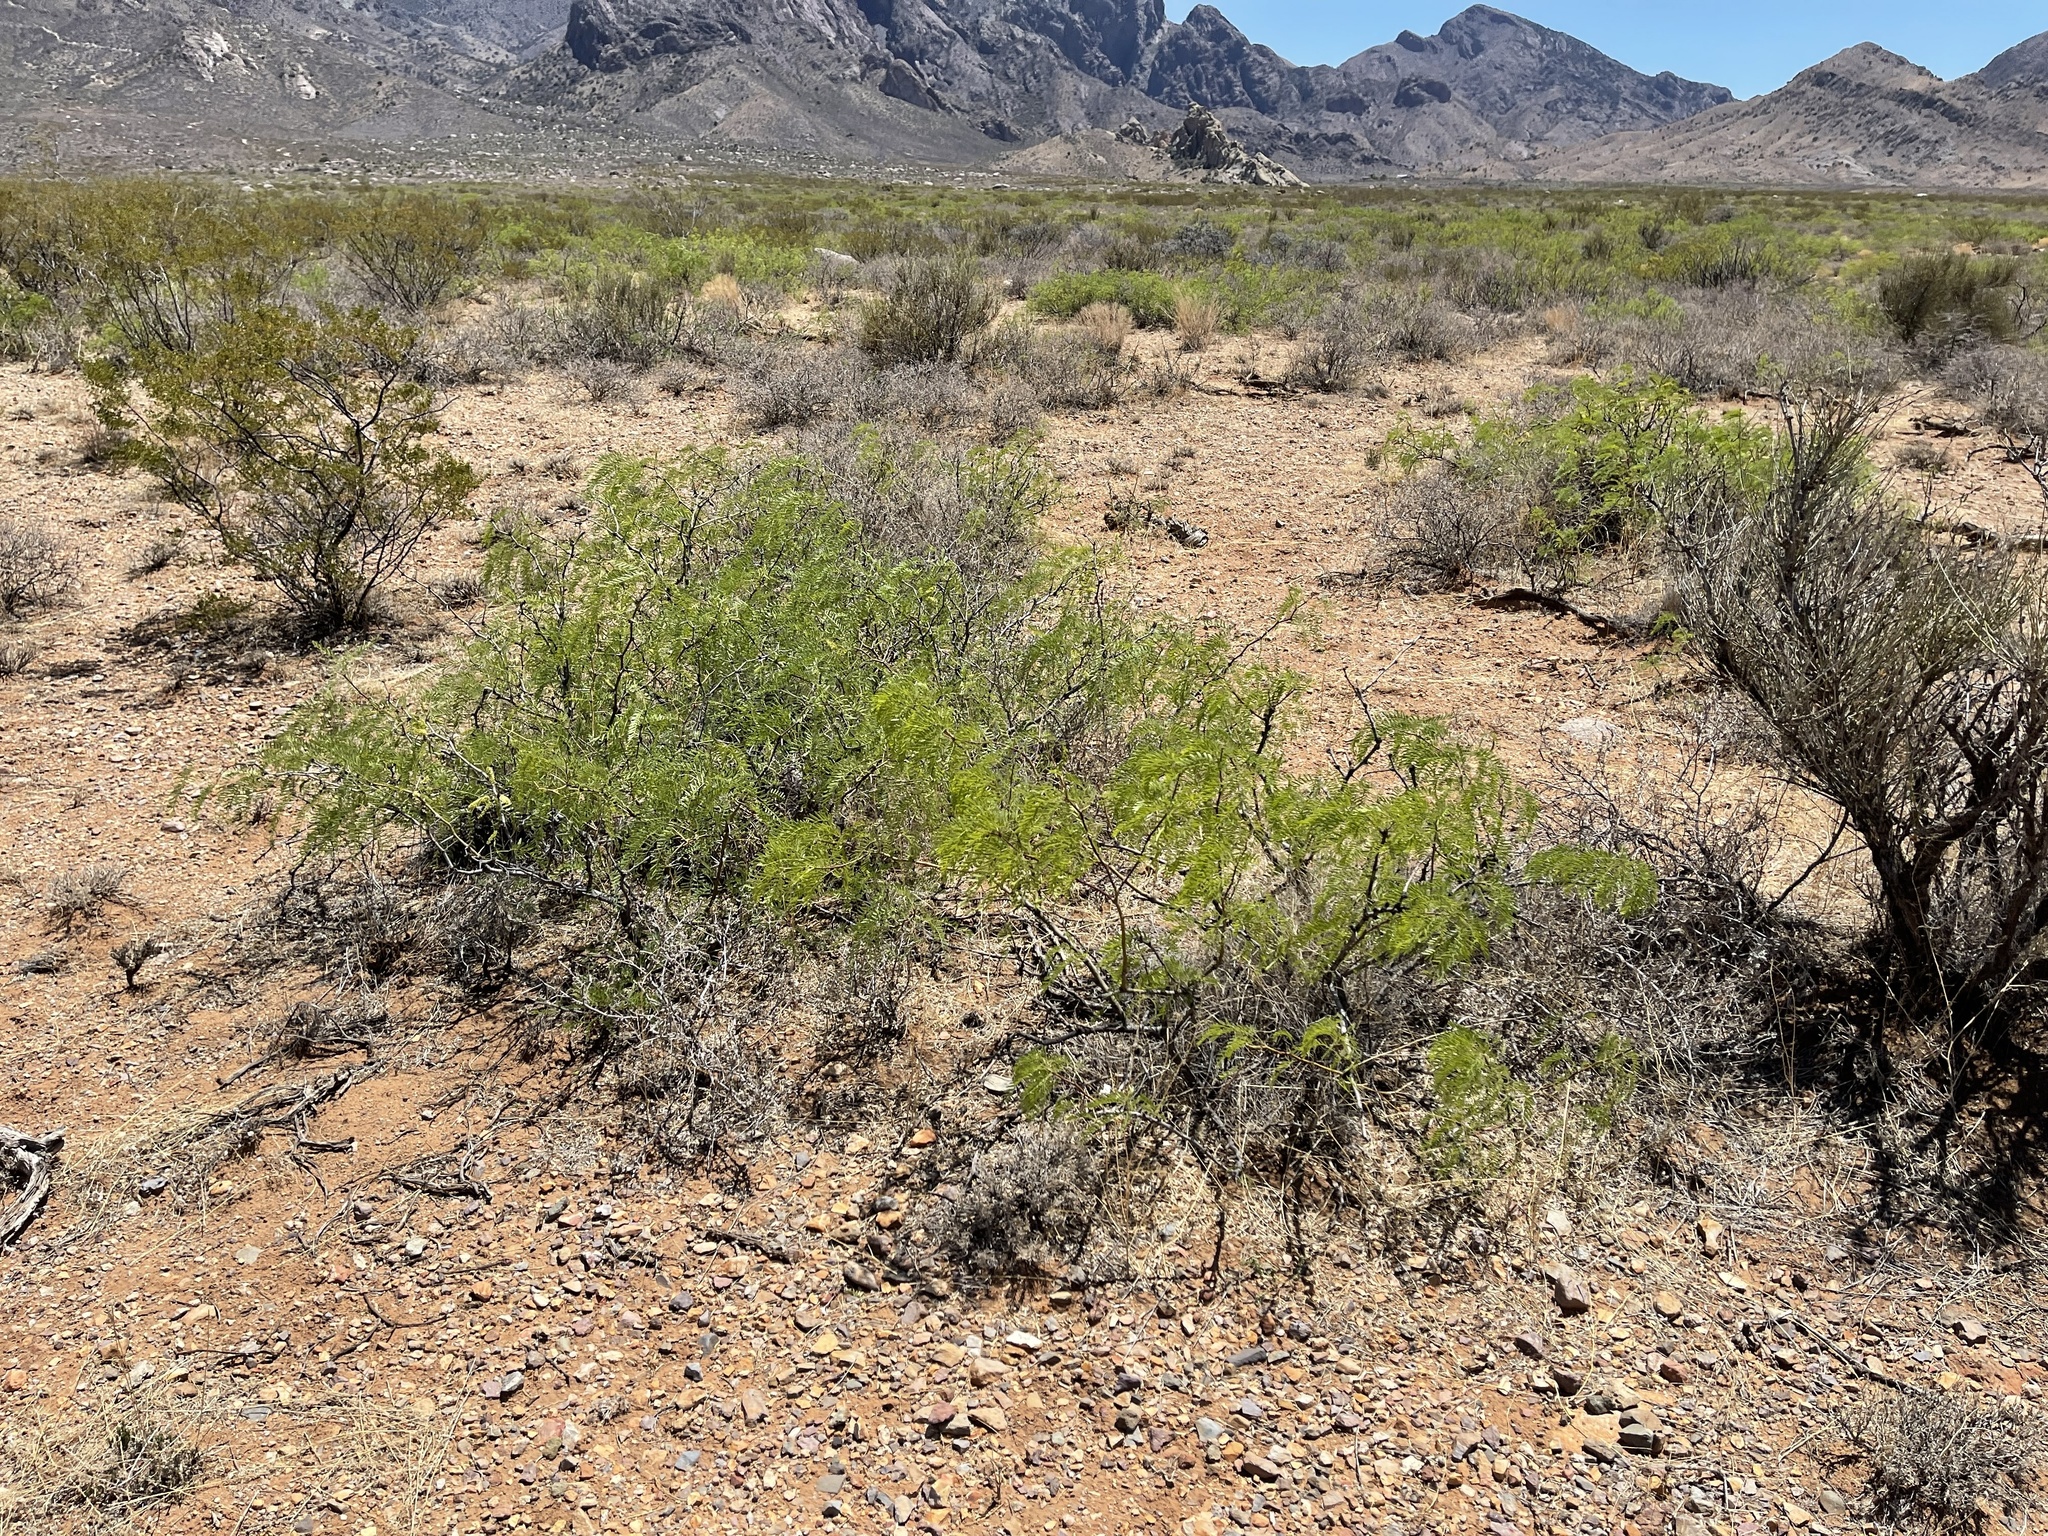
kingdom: Plantae
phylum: Tracheophyta
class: Magnoliopsida
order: Fabales
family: Fabaceae
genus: Prosopis
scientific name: Prosopis glandulosa
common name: Honey mesquite
